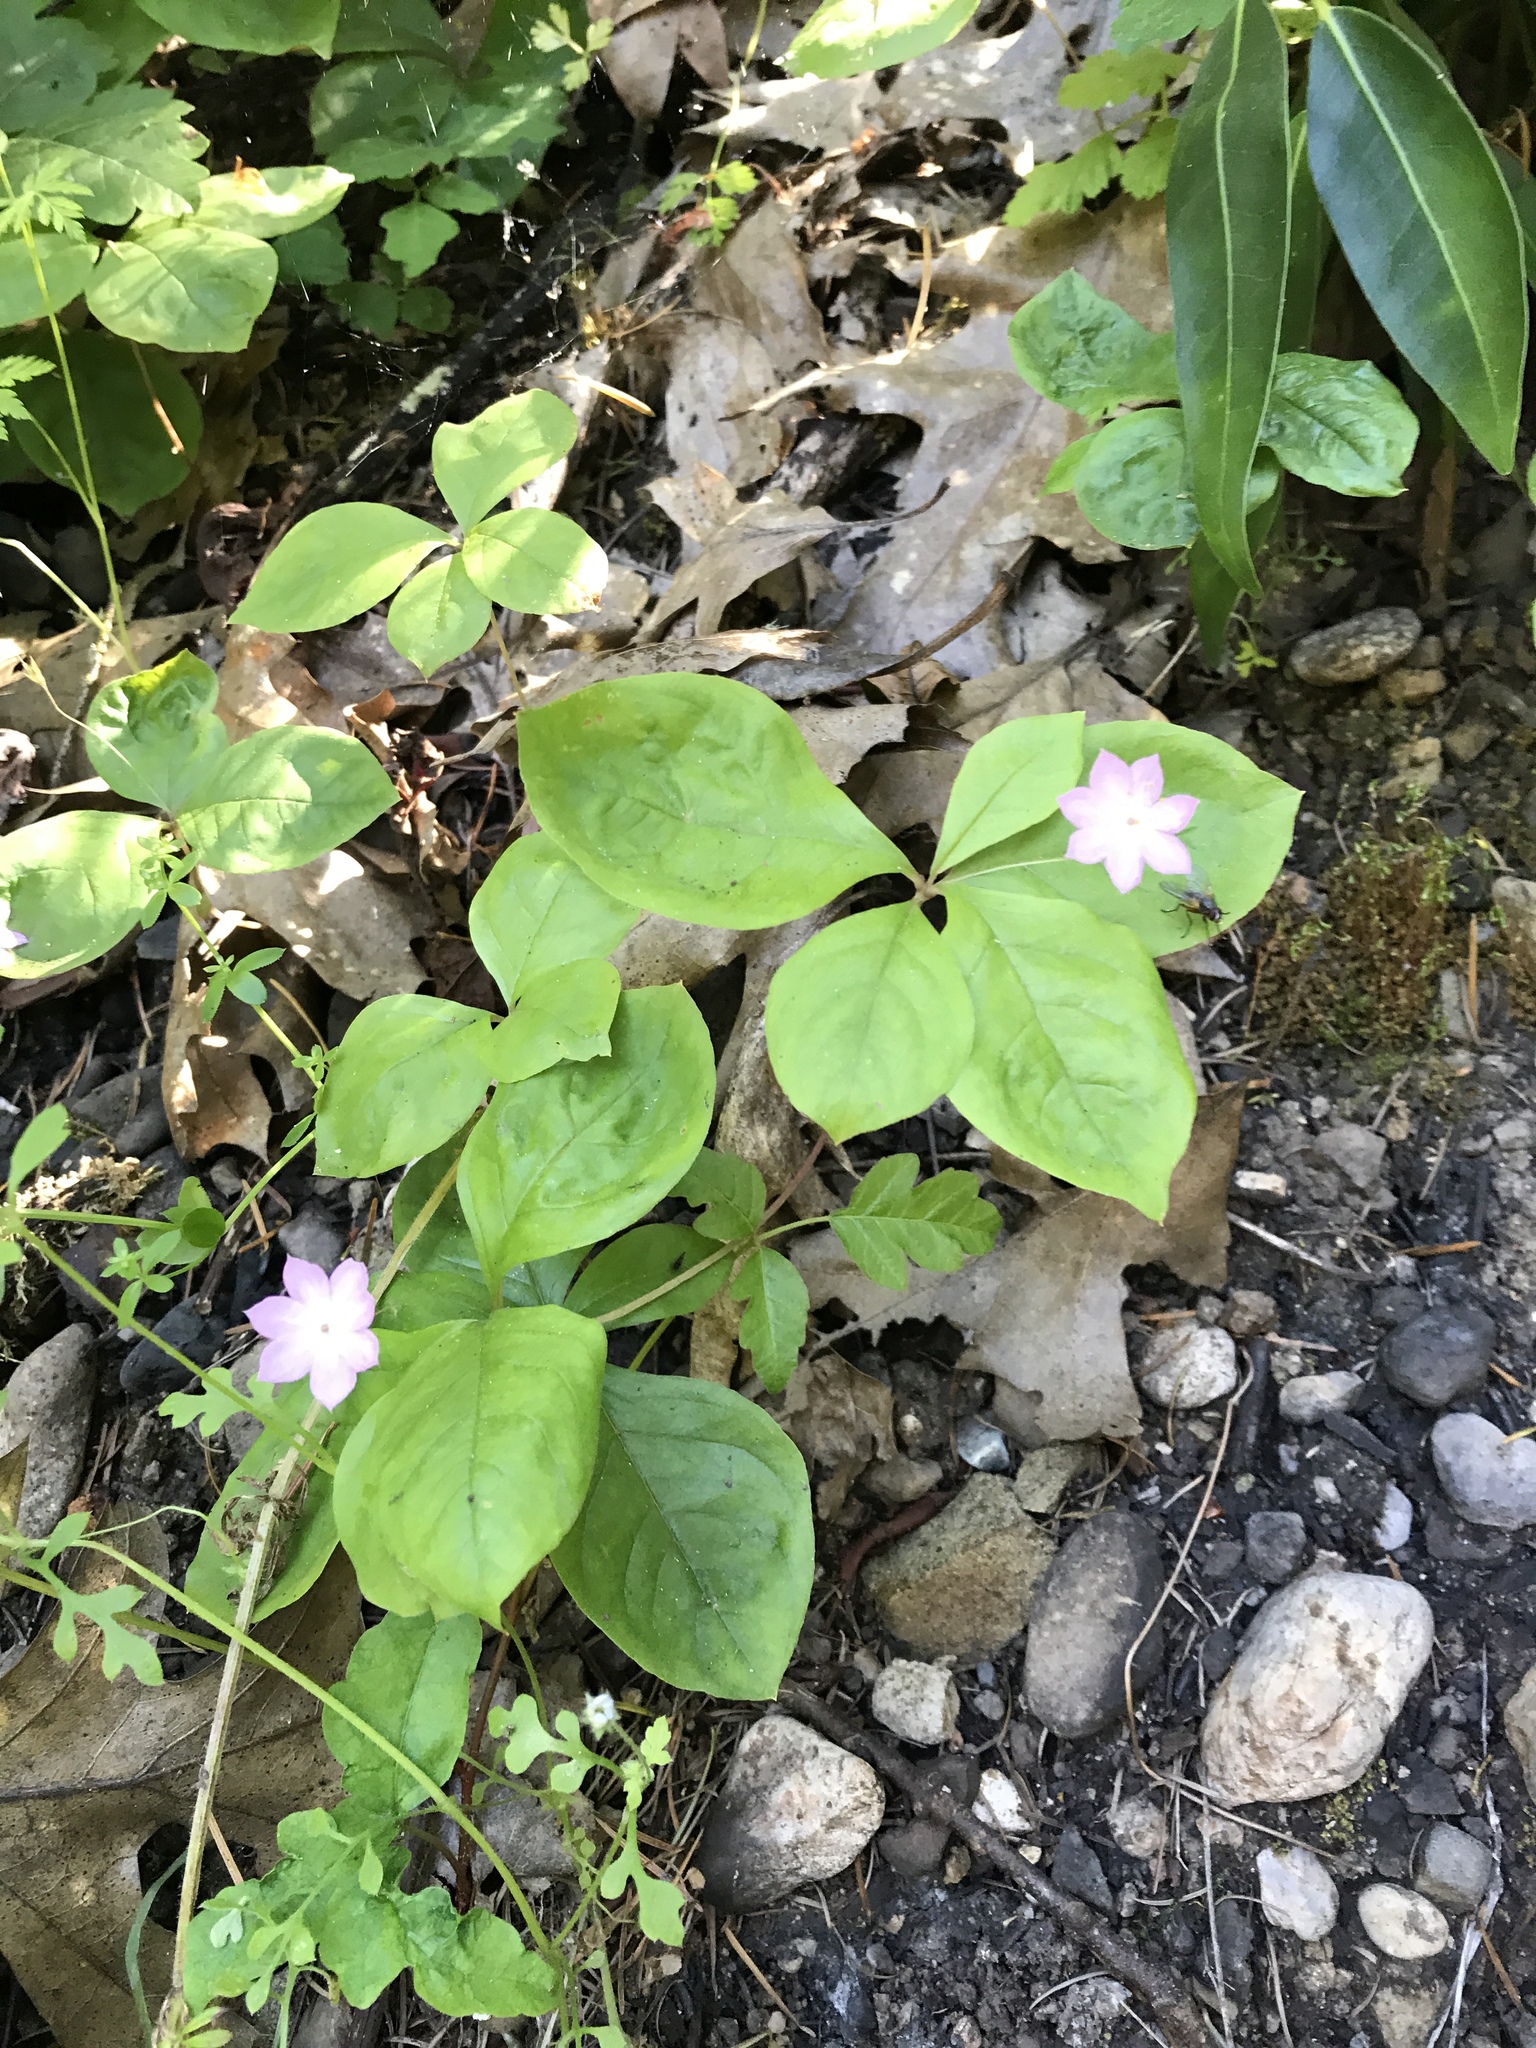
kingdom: Plantae
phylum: Tracheophyta
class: Magnoliopsida
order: Ericales
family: Primulaceae
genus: Lysimachia
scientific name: Lysimachia latifolia
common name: Pacific starflower
